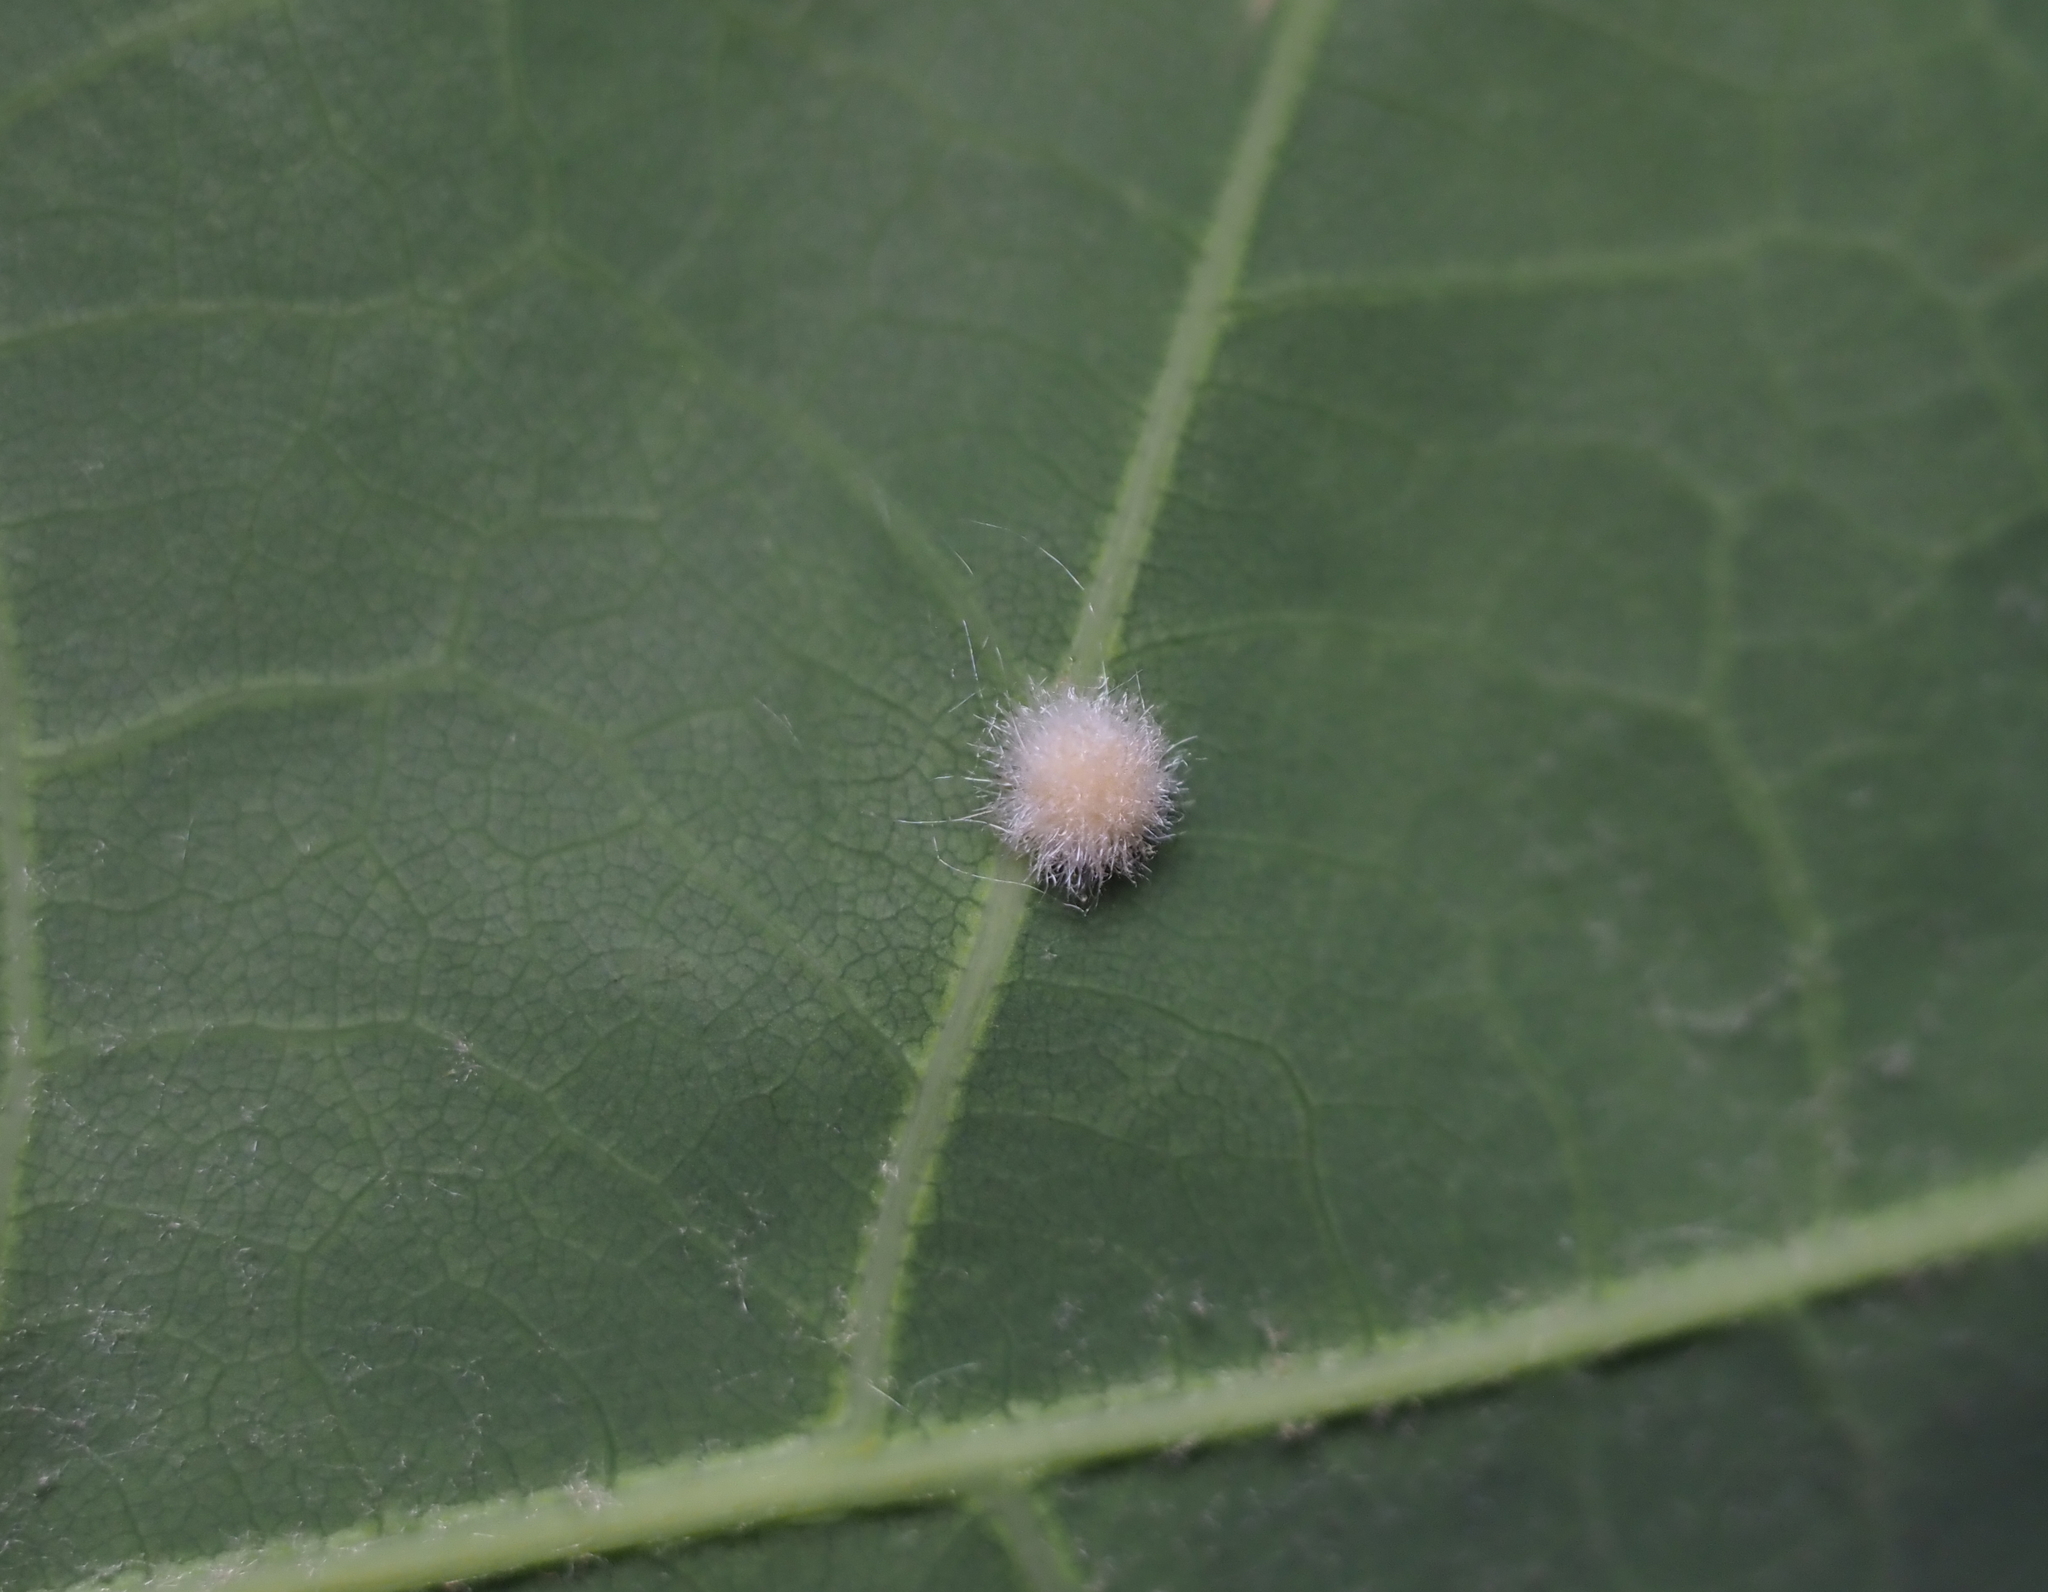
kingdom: Animalia
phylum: Arthropoda
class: Insecta
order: Hymenoptera
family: Cynipidae
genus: Philonix
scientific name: Philonix fulvicollis
